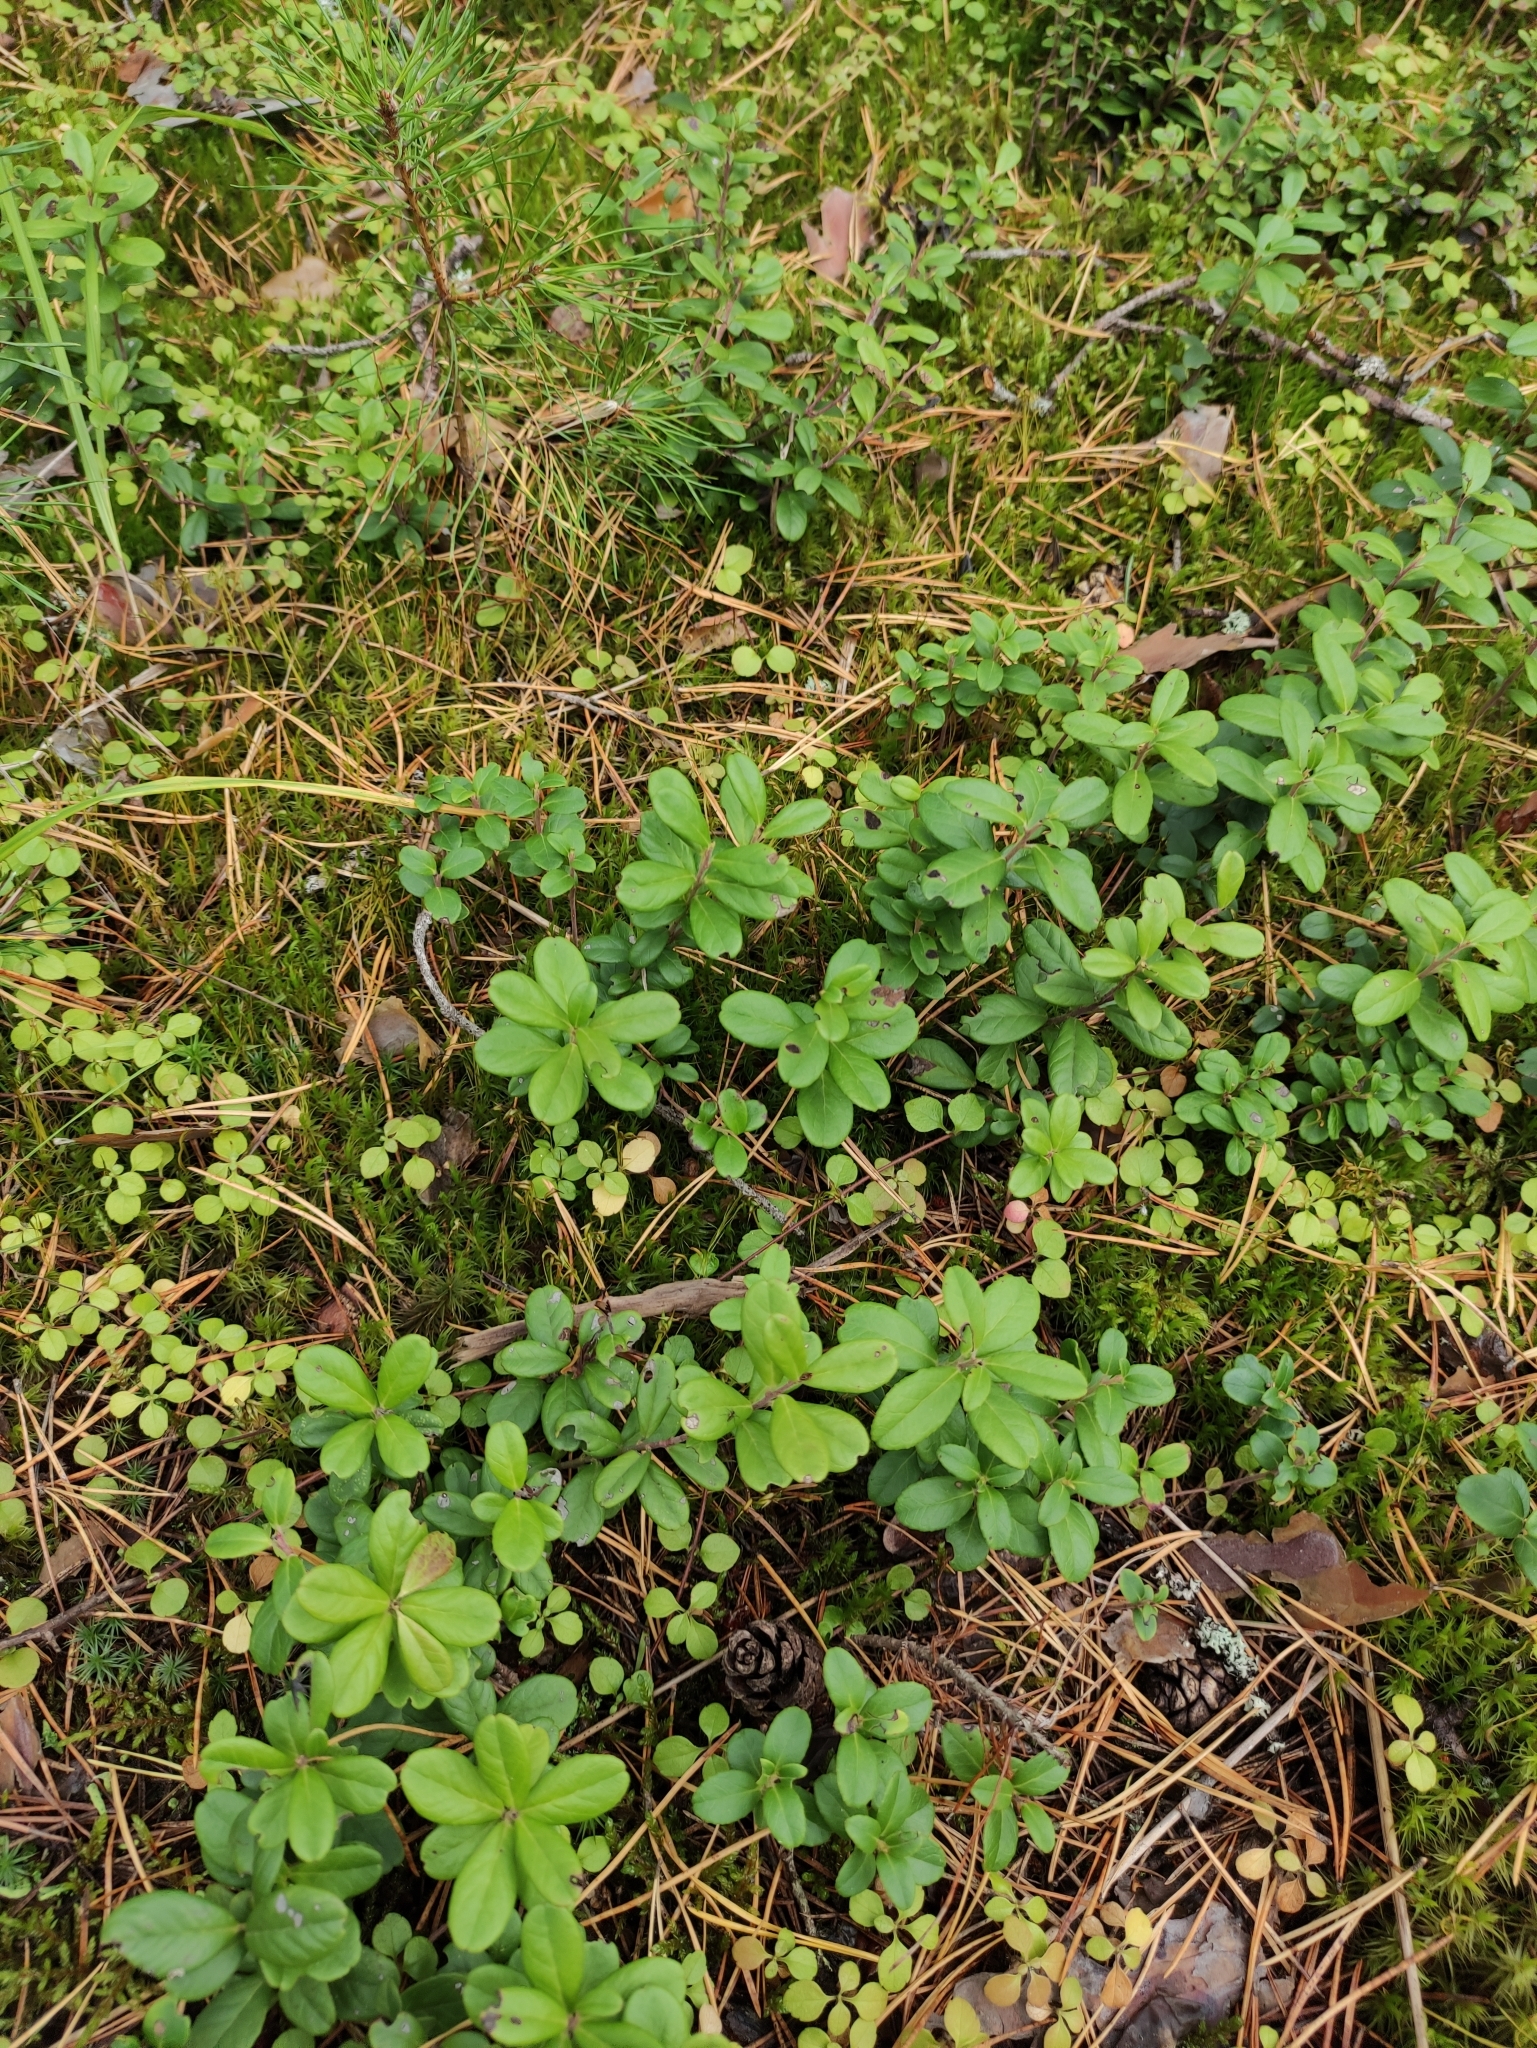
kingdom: Plantae
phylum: Tracheophyta
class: Magnoliopsida
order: Ericales
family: Ericaceae
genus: Vaccinium
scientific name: Vaccinium vitis-idaea
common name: Cowberry
